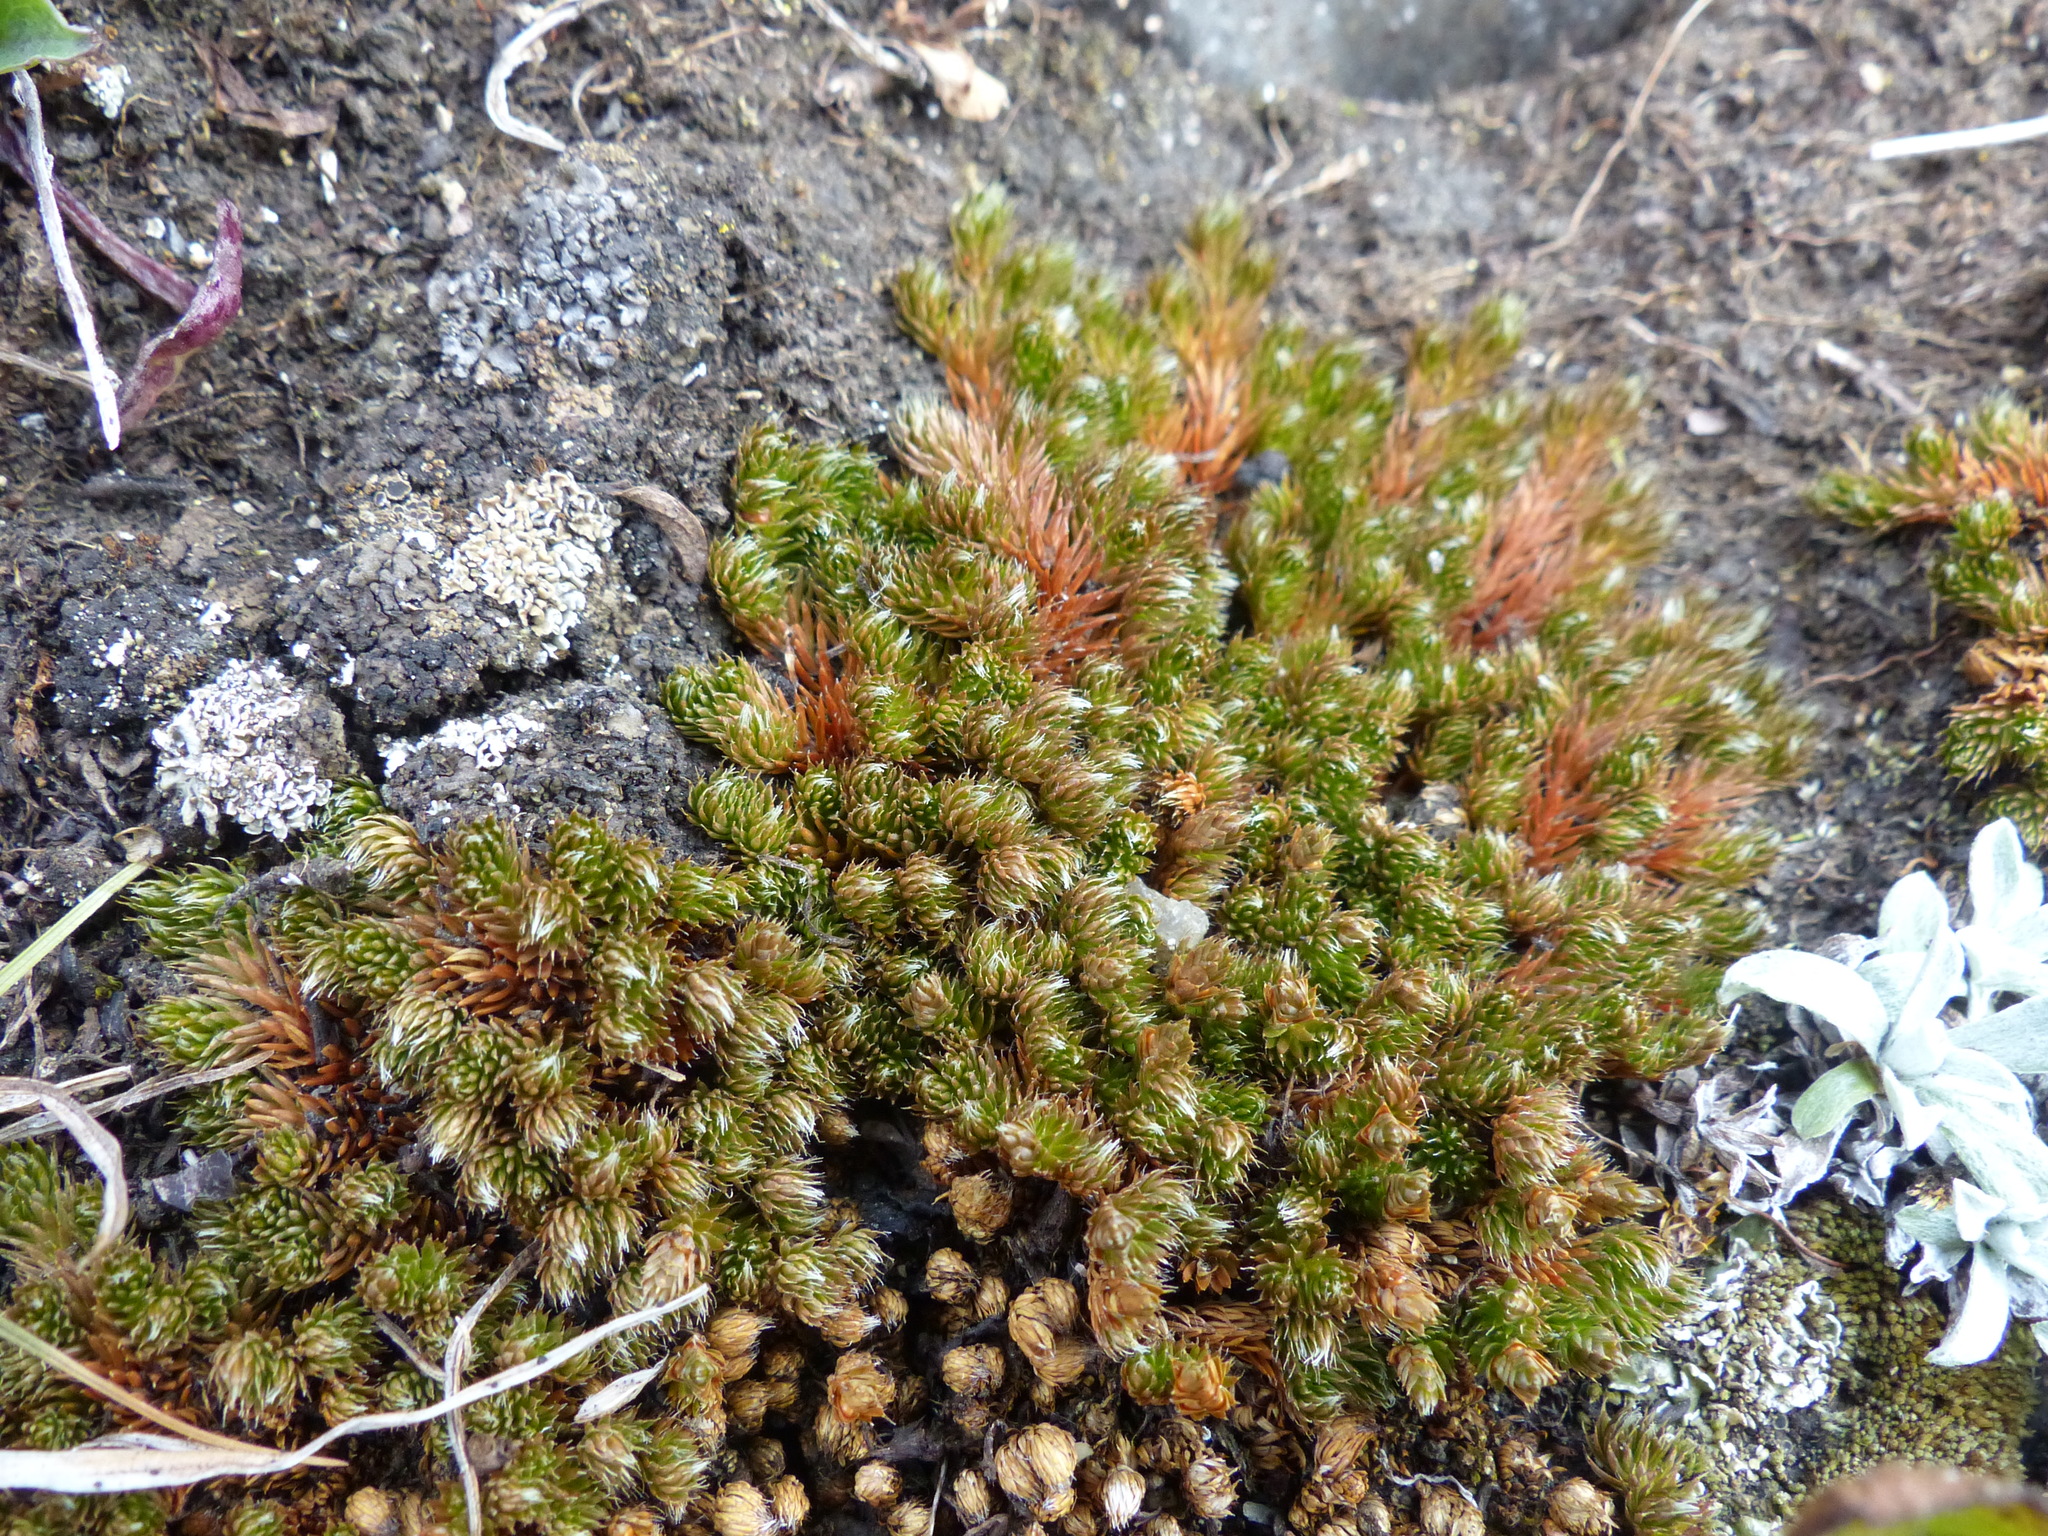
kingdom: Plantae
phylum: Tracheophyta
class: Lycopodiopsida
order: Selaginellales
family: Selaginellaceae
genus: Selaginella
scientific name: Selaginella densa
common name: Mountain spike-moss
